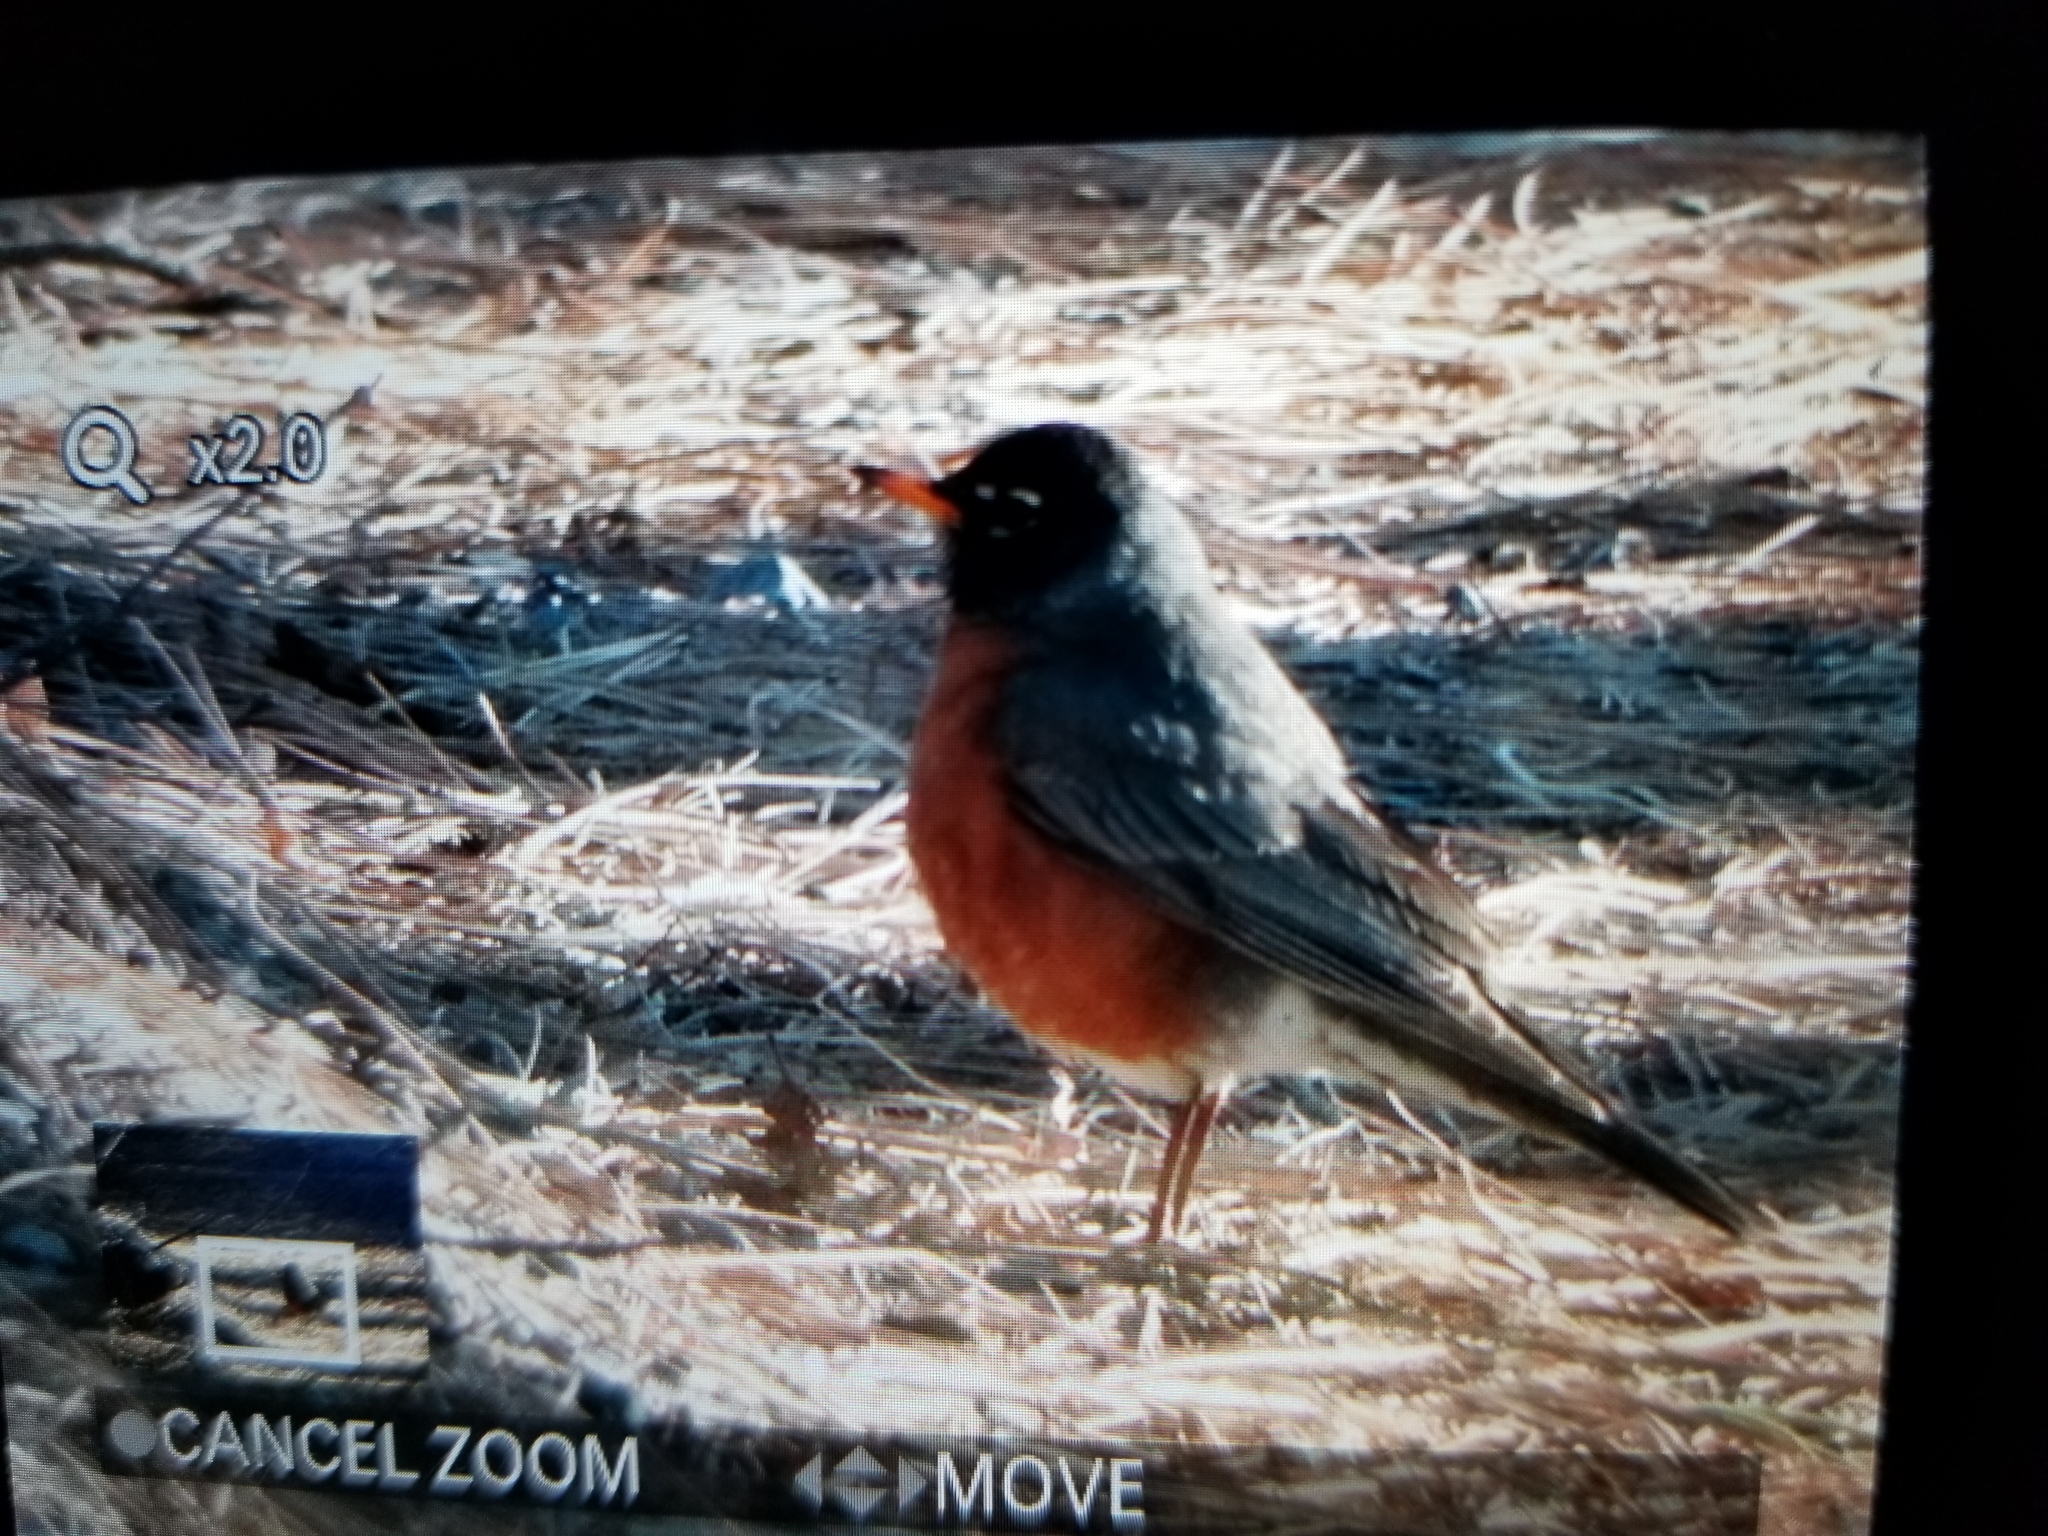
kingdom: Animalia
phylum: Chordata
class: Aves
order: Passeriformes
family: Turdidae
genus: Turdus
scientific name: Turdus migratorius
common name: American robin
